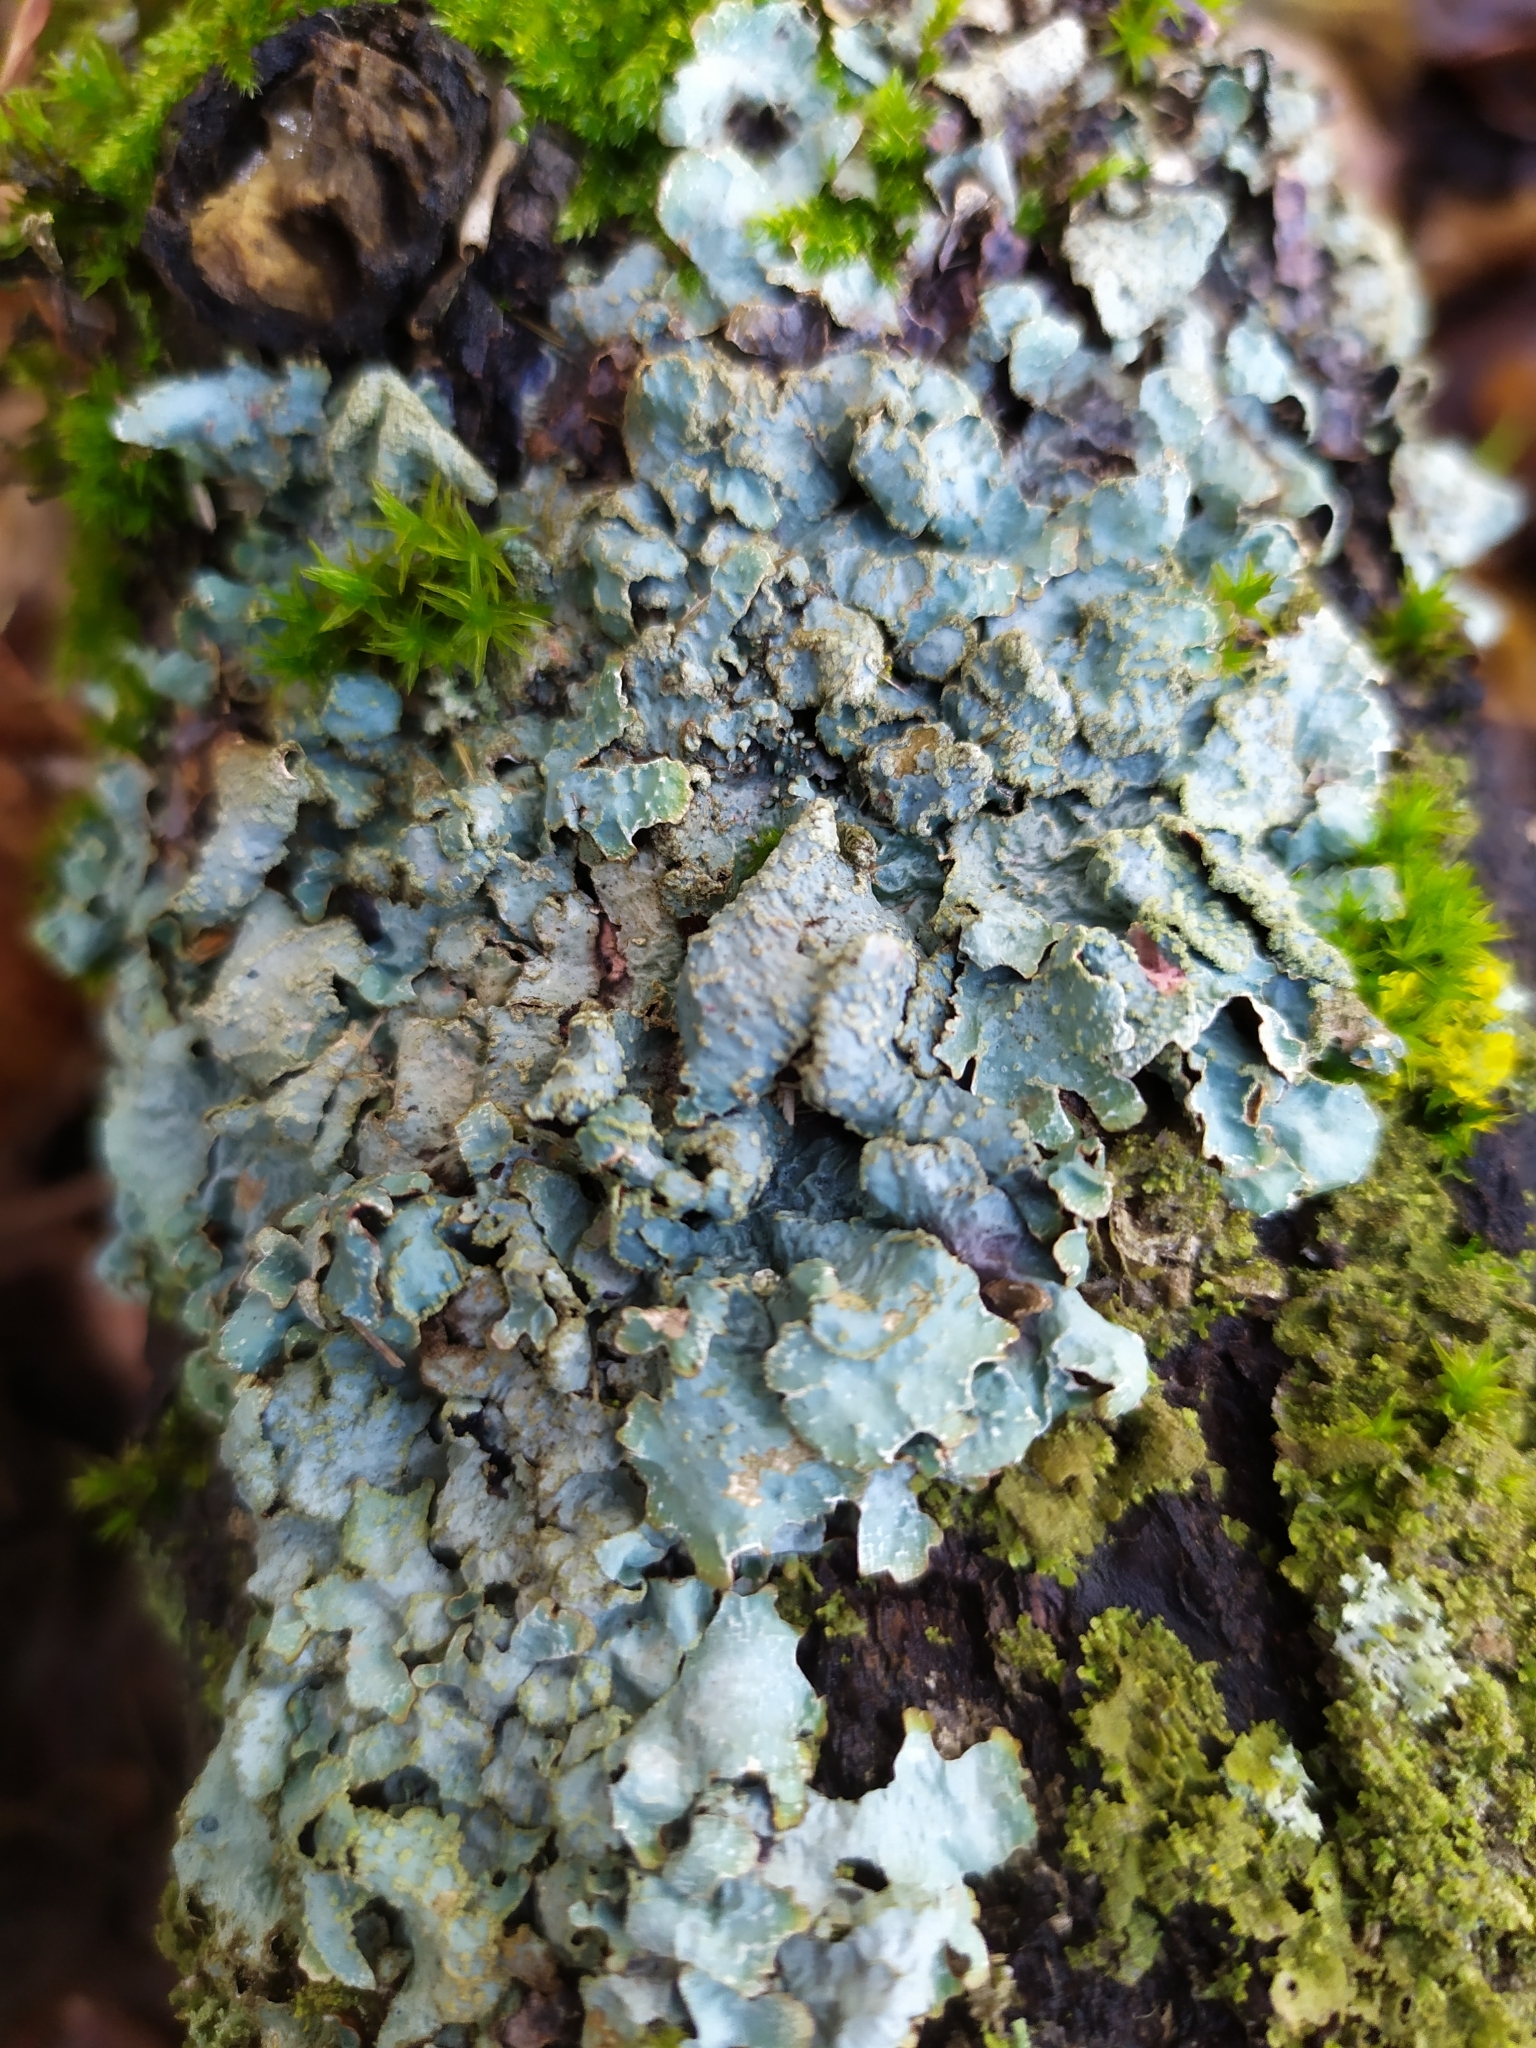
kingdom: Fungi
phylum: Ascomycota
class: Lecanoromycetes
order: Lecanorales
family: Parmeliaceae
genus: Parmelia
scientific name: Parmelia sulcata
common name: Netted shield lichen
